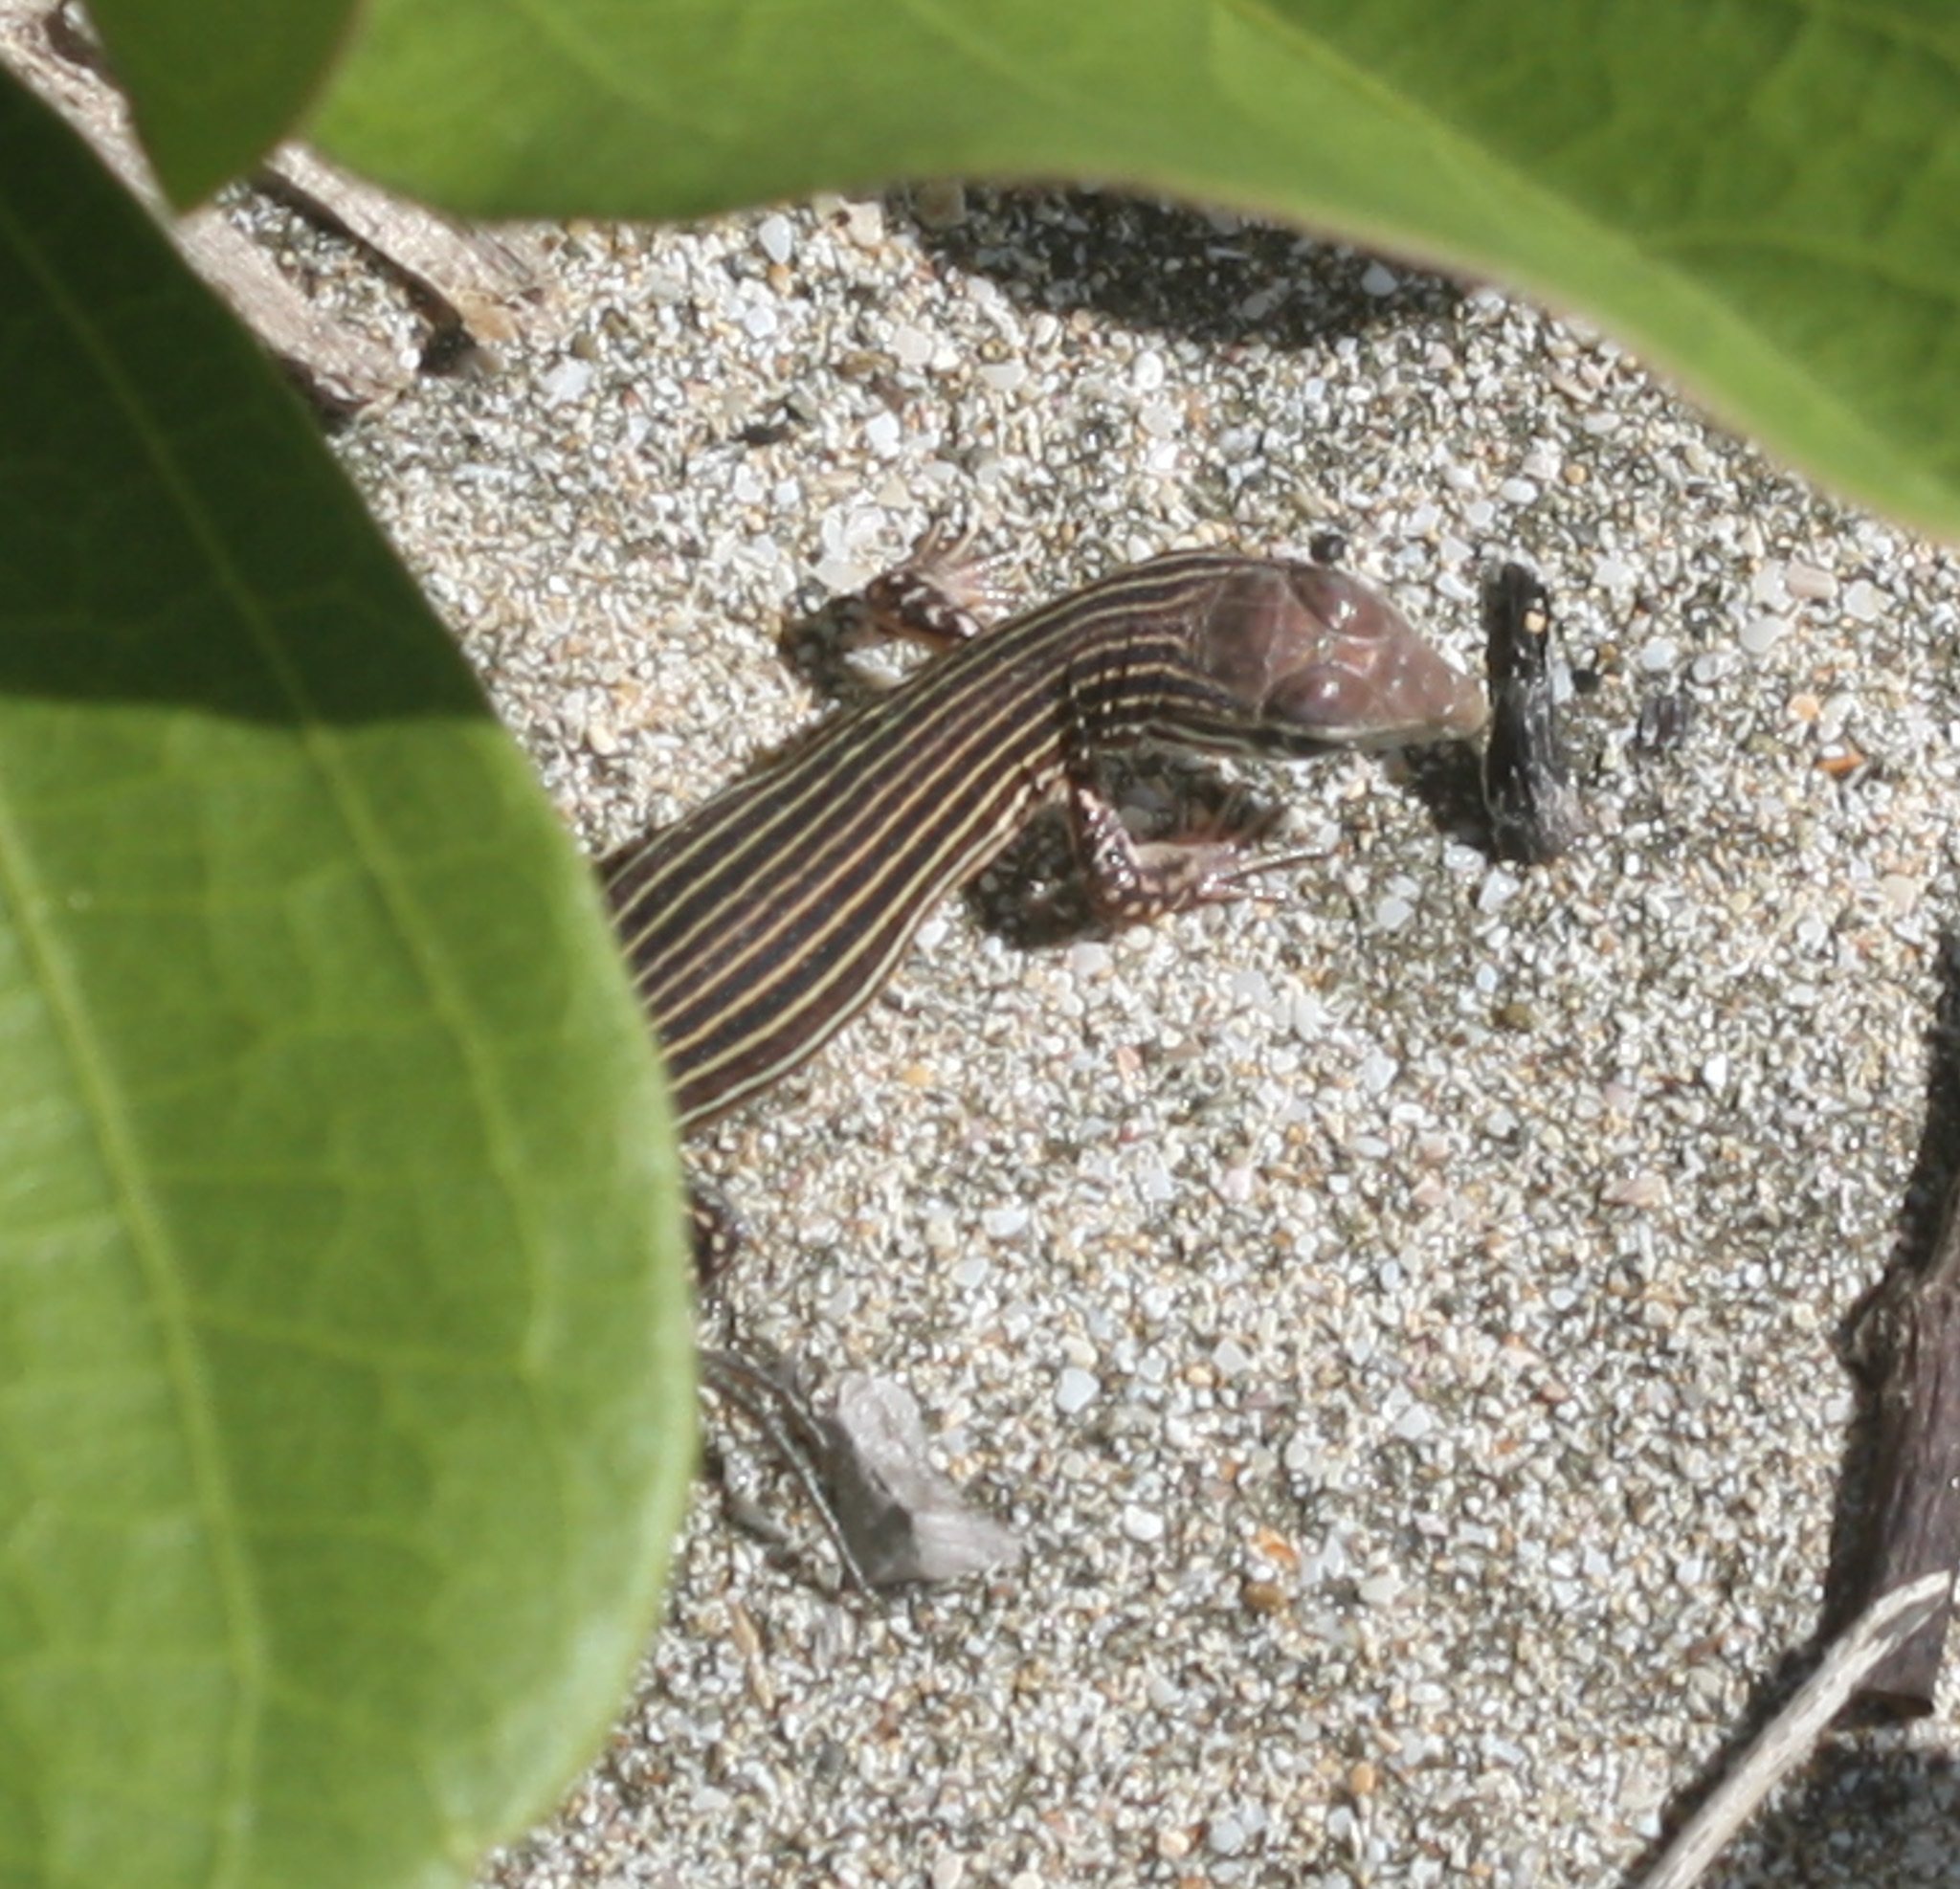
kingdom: Animalia
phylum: Chordata
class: Squamata
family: Teiidae
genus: Aspidoscelis
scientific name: Aspidoscelis deppii
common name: Blackbelly racerunner
